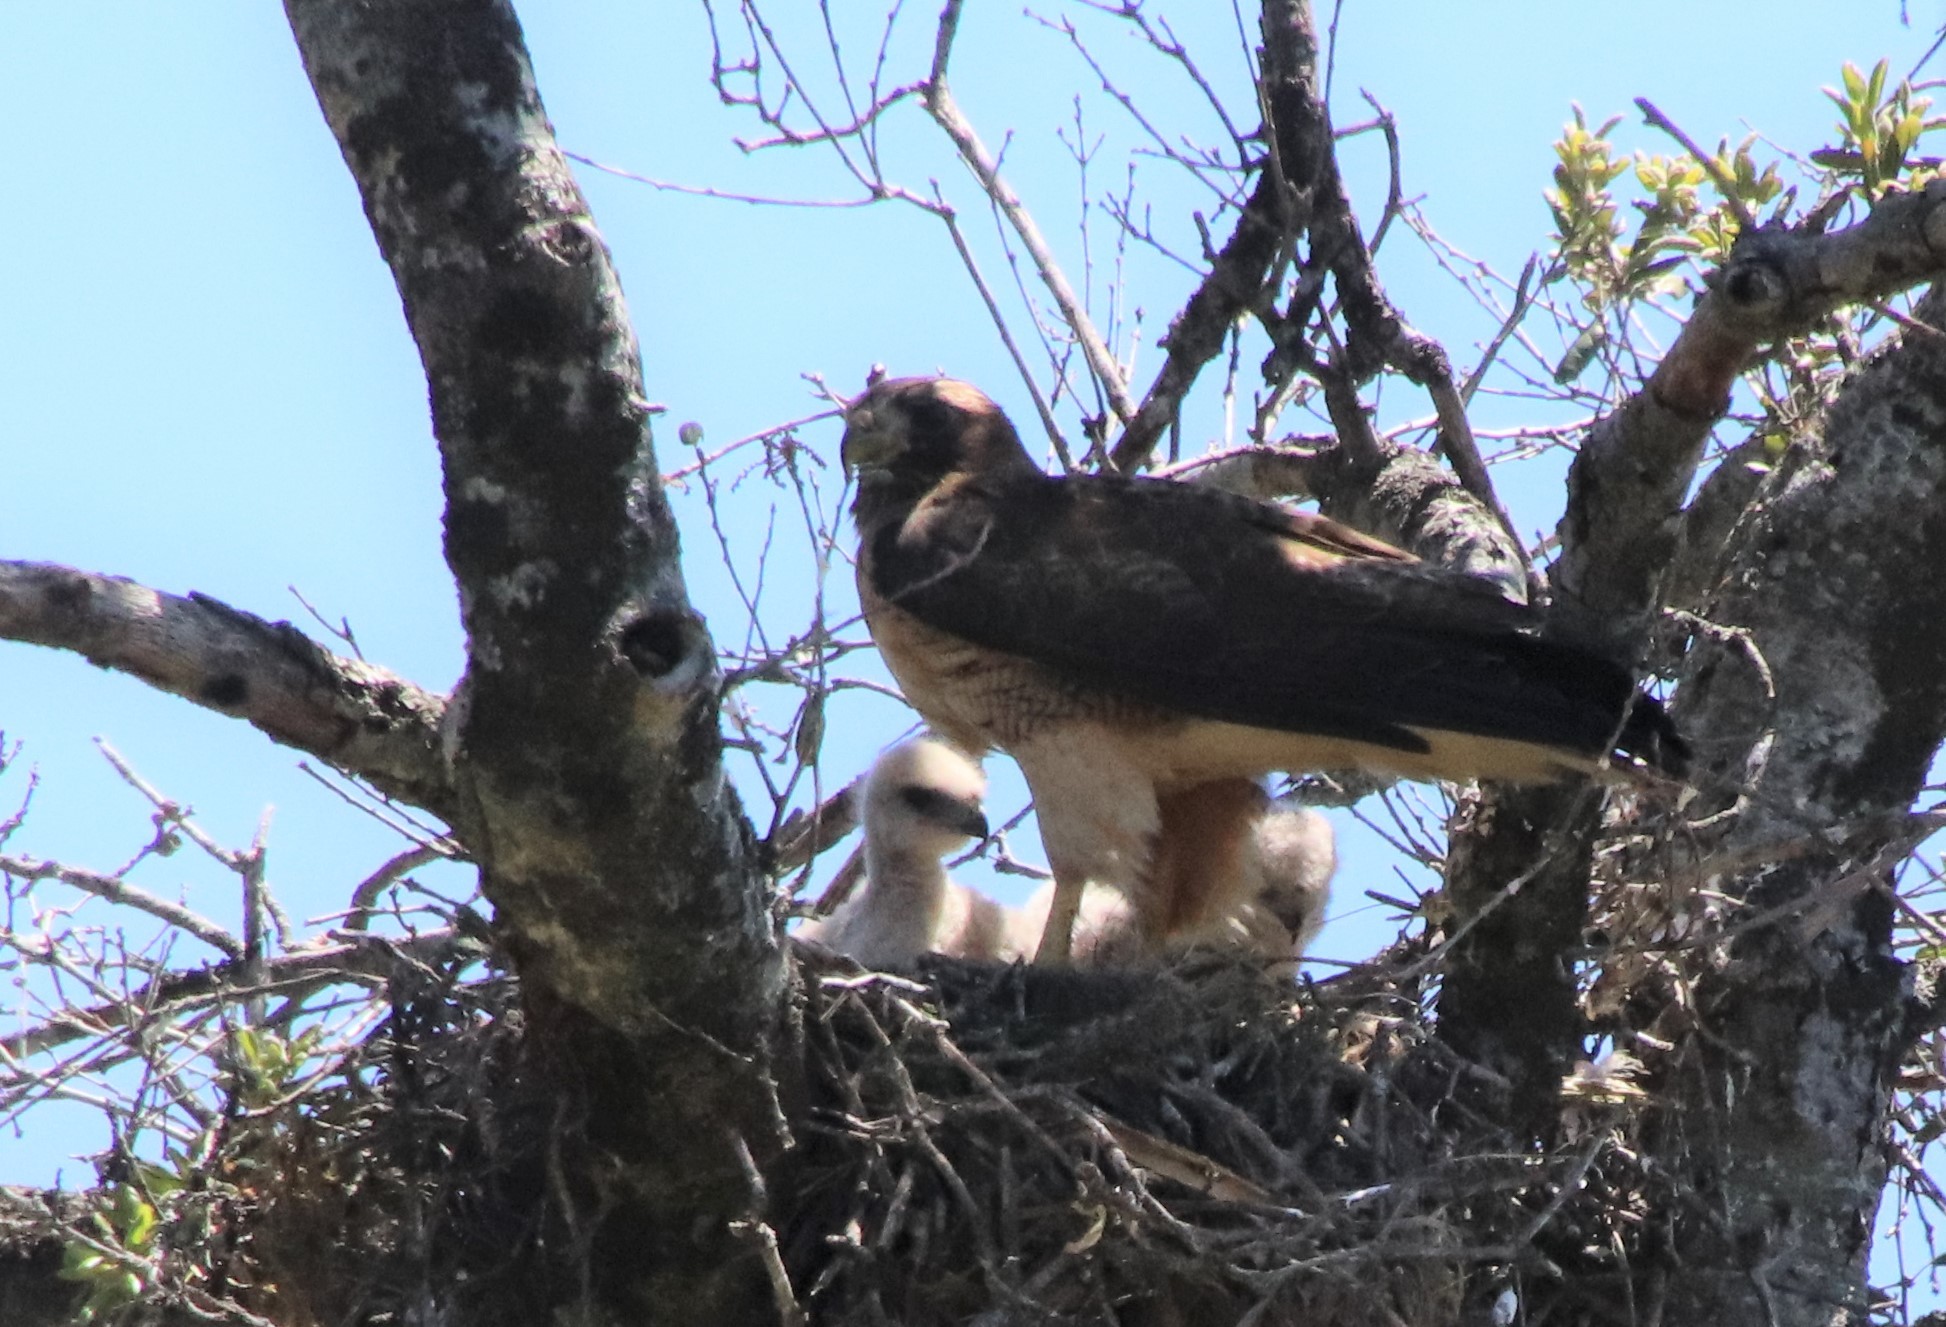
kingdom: Animalia
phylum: Chordata
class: Aves
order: Accipitriformes
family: Accipitridae
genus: Buteo
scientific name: Buteo jamaicensis
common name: Red-tailed hawk
